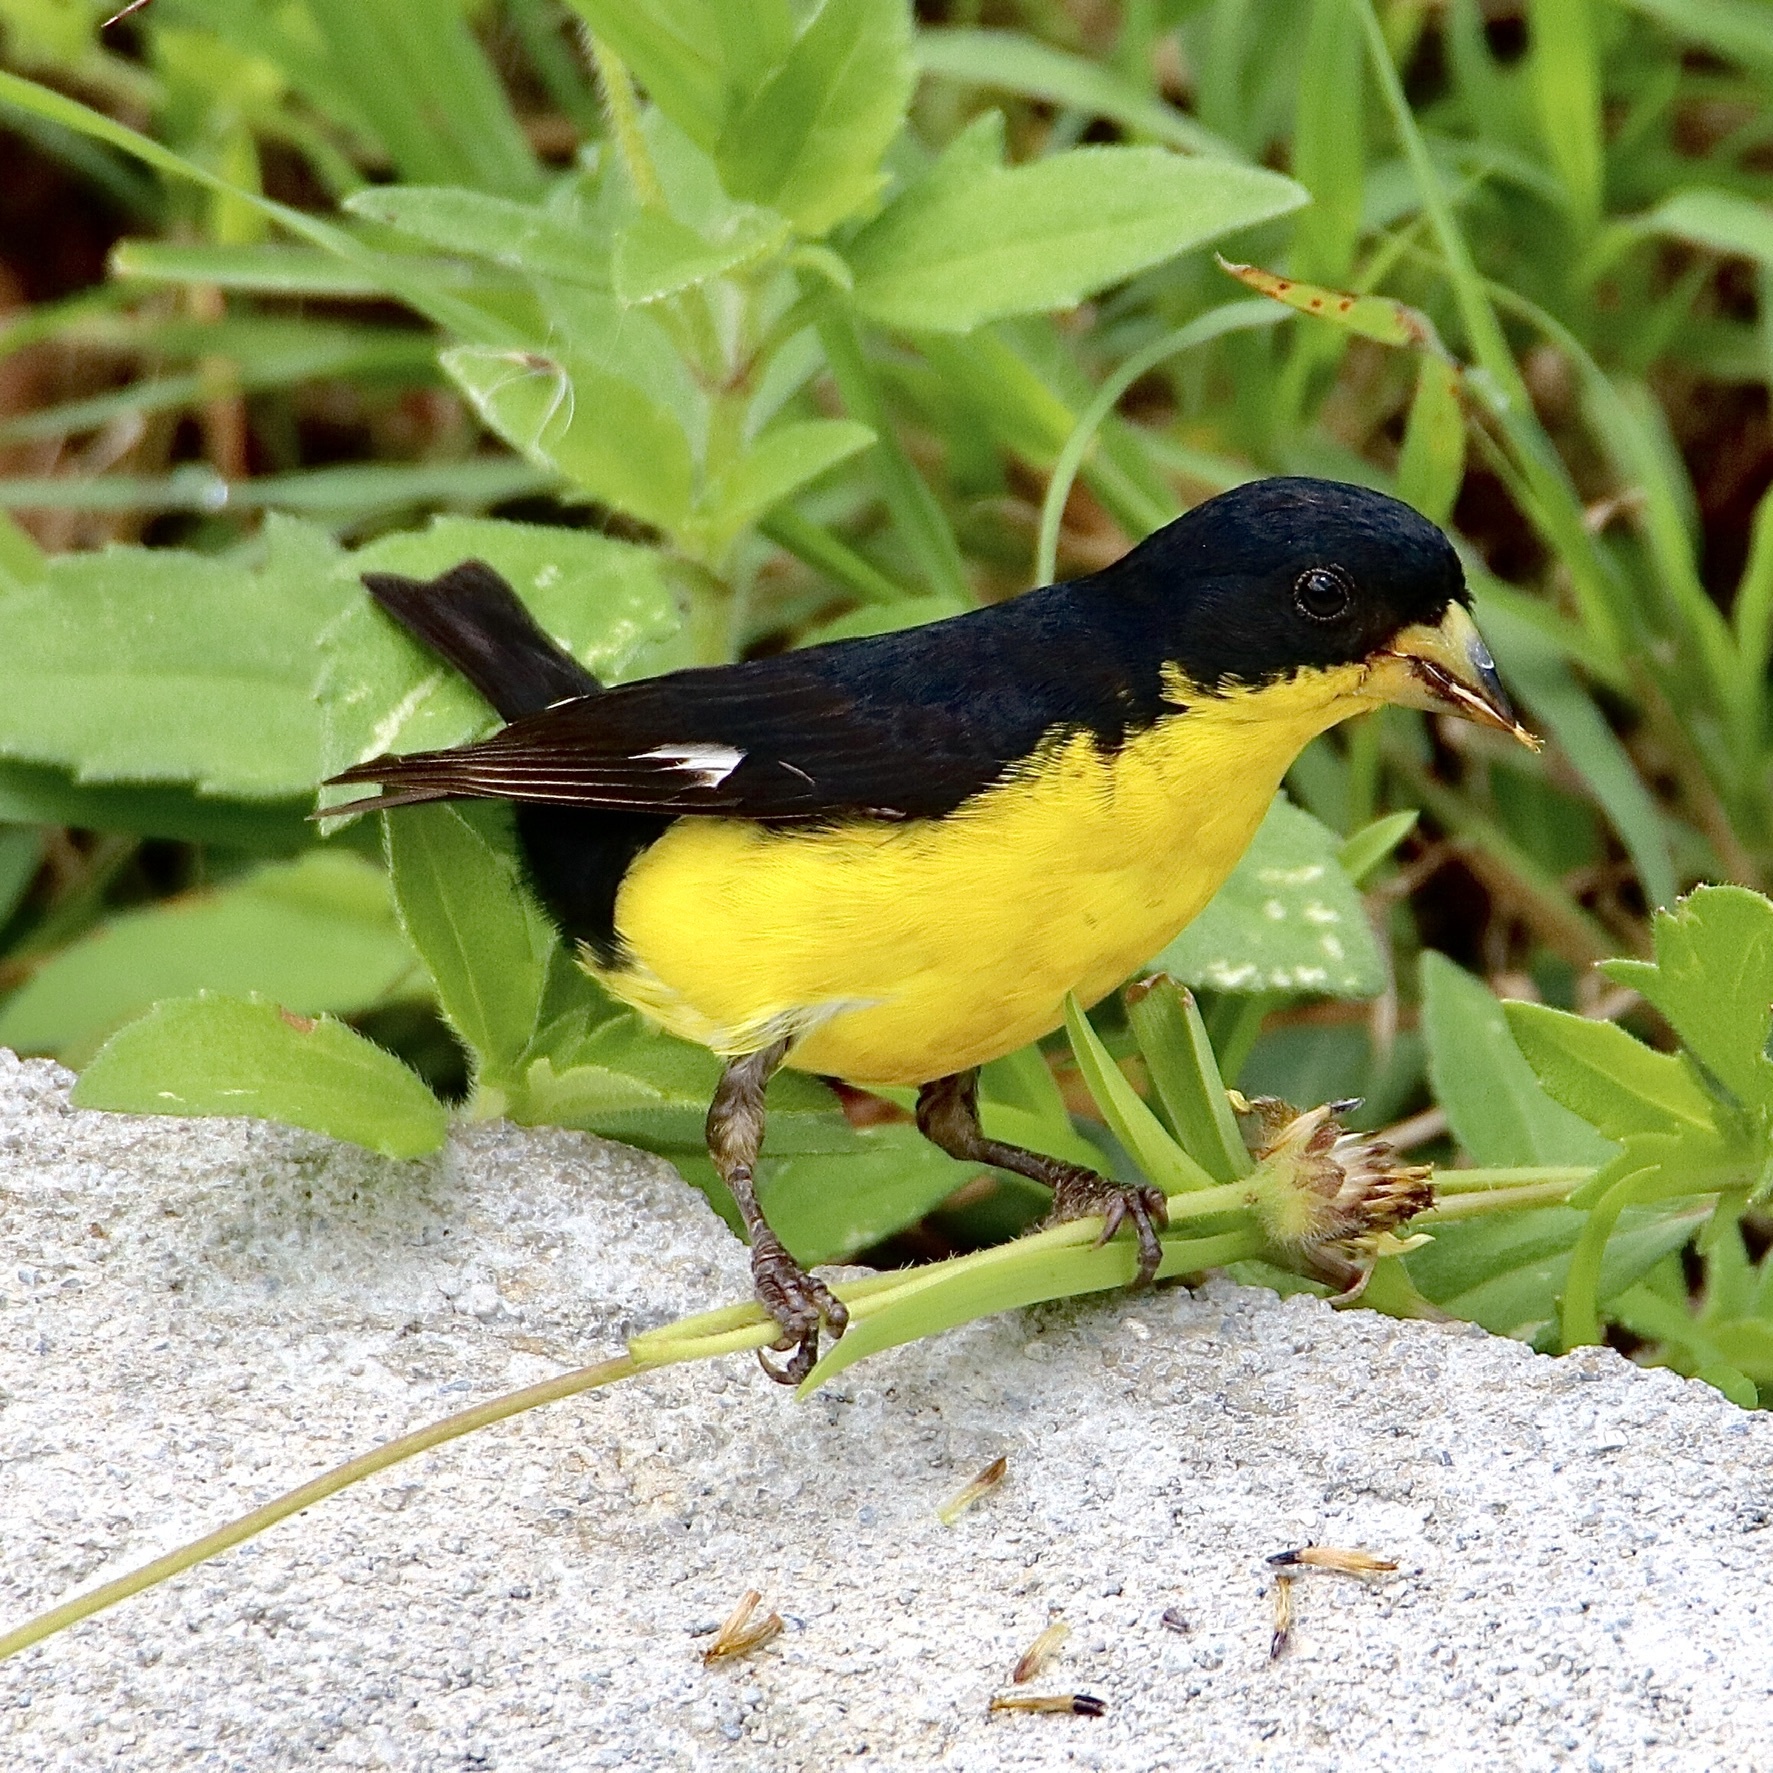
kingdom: Animalia
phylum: Chordata
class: Aves
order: Passeriformes
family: Fringillidae
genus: Spinus
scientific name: Spinus psaltria
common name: Lesser goldfinch
